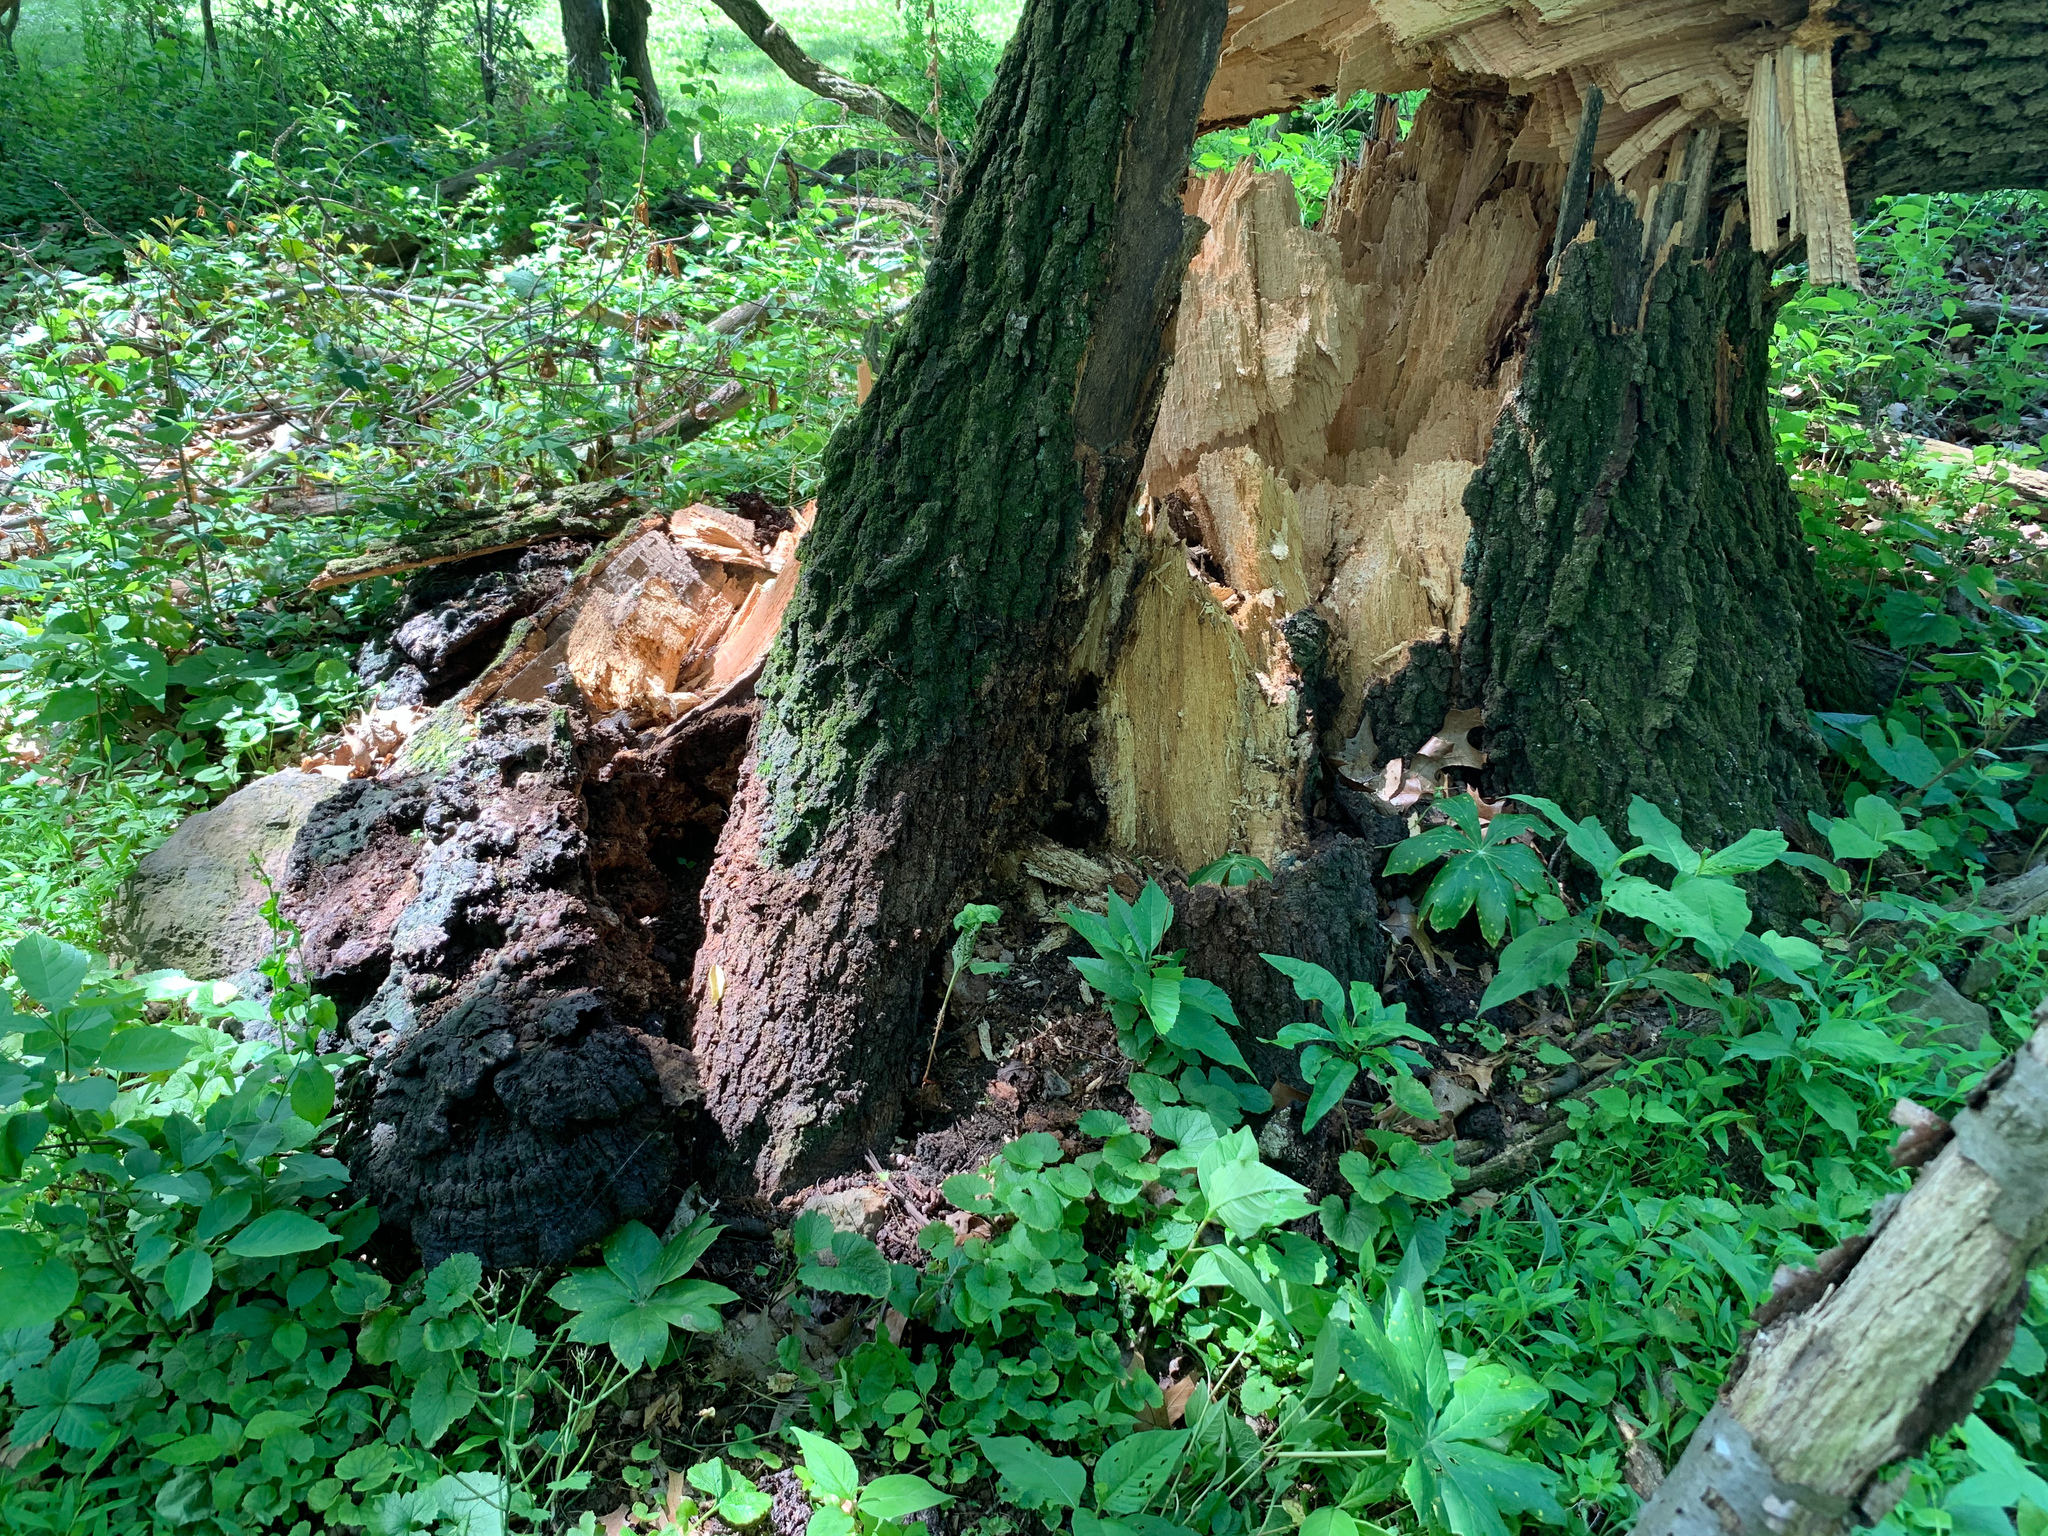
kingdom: Fungi
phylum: Basidiomycota
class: Agaricomycetes
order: Hymenochaetales
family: Hymenochaetaceae
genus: Pseudoinonotus
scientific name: Pseudoinonotus dryadeus
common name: Oak bracket
